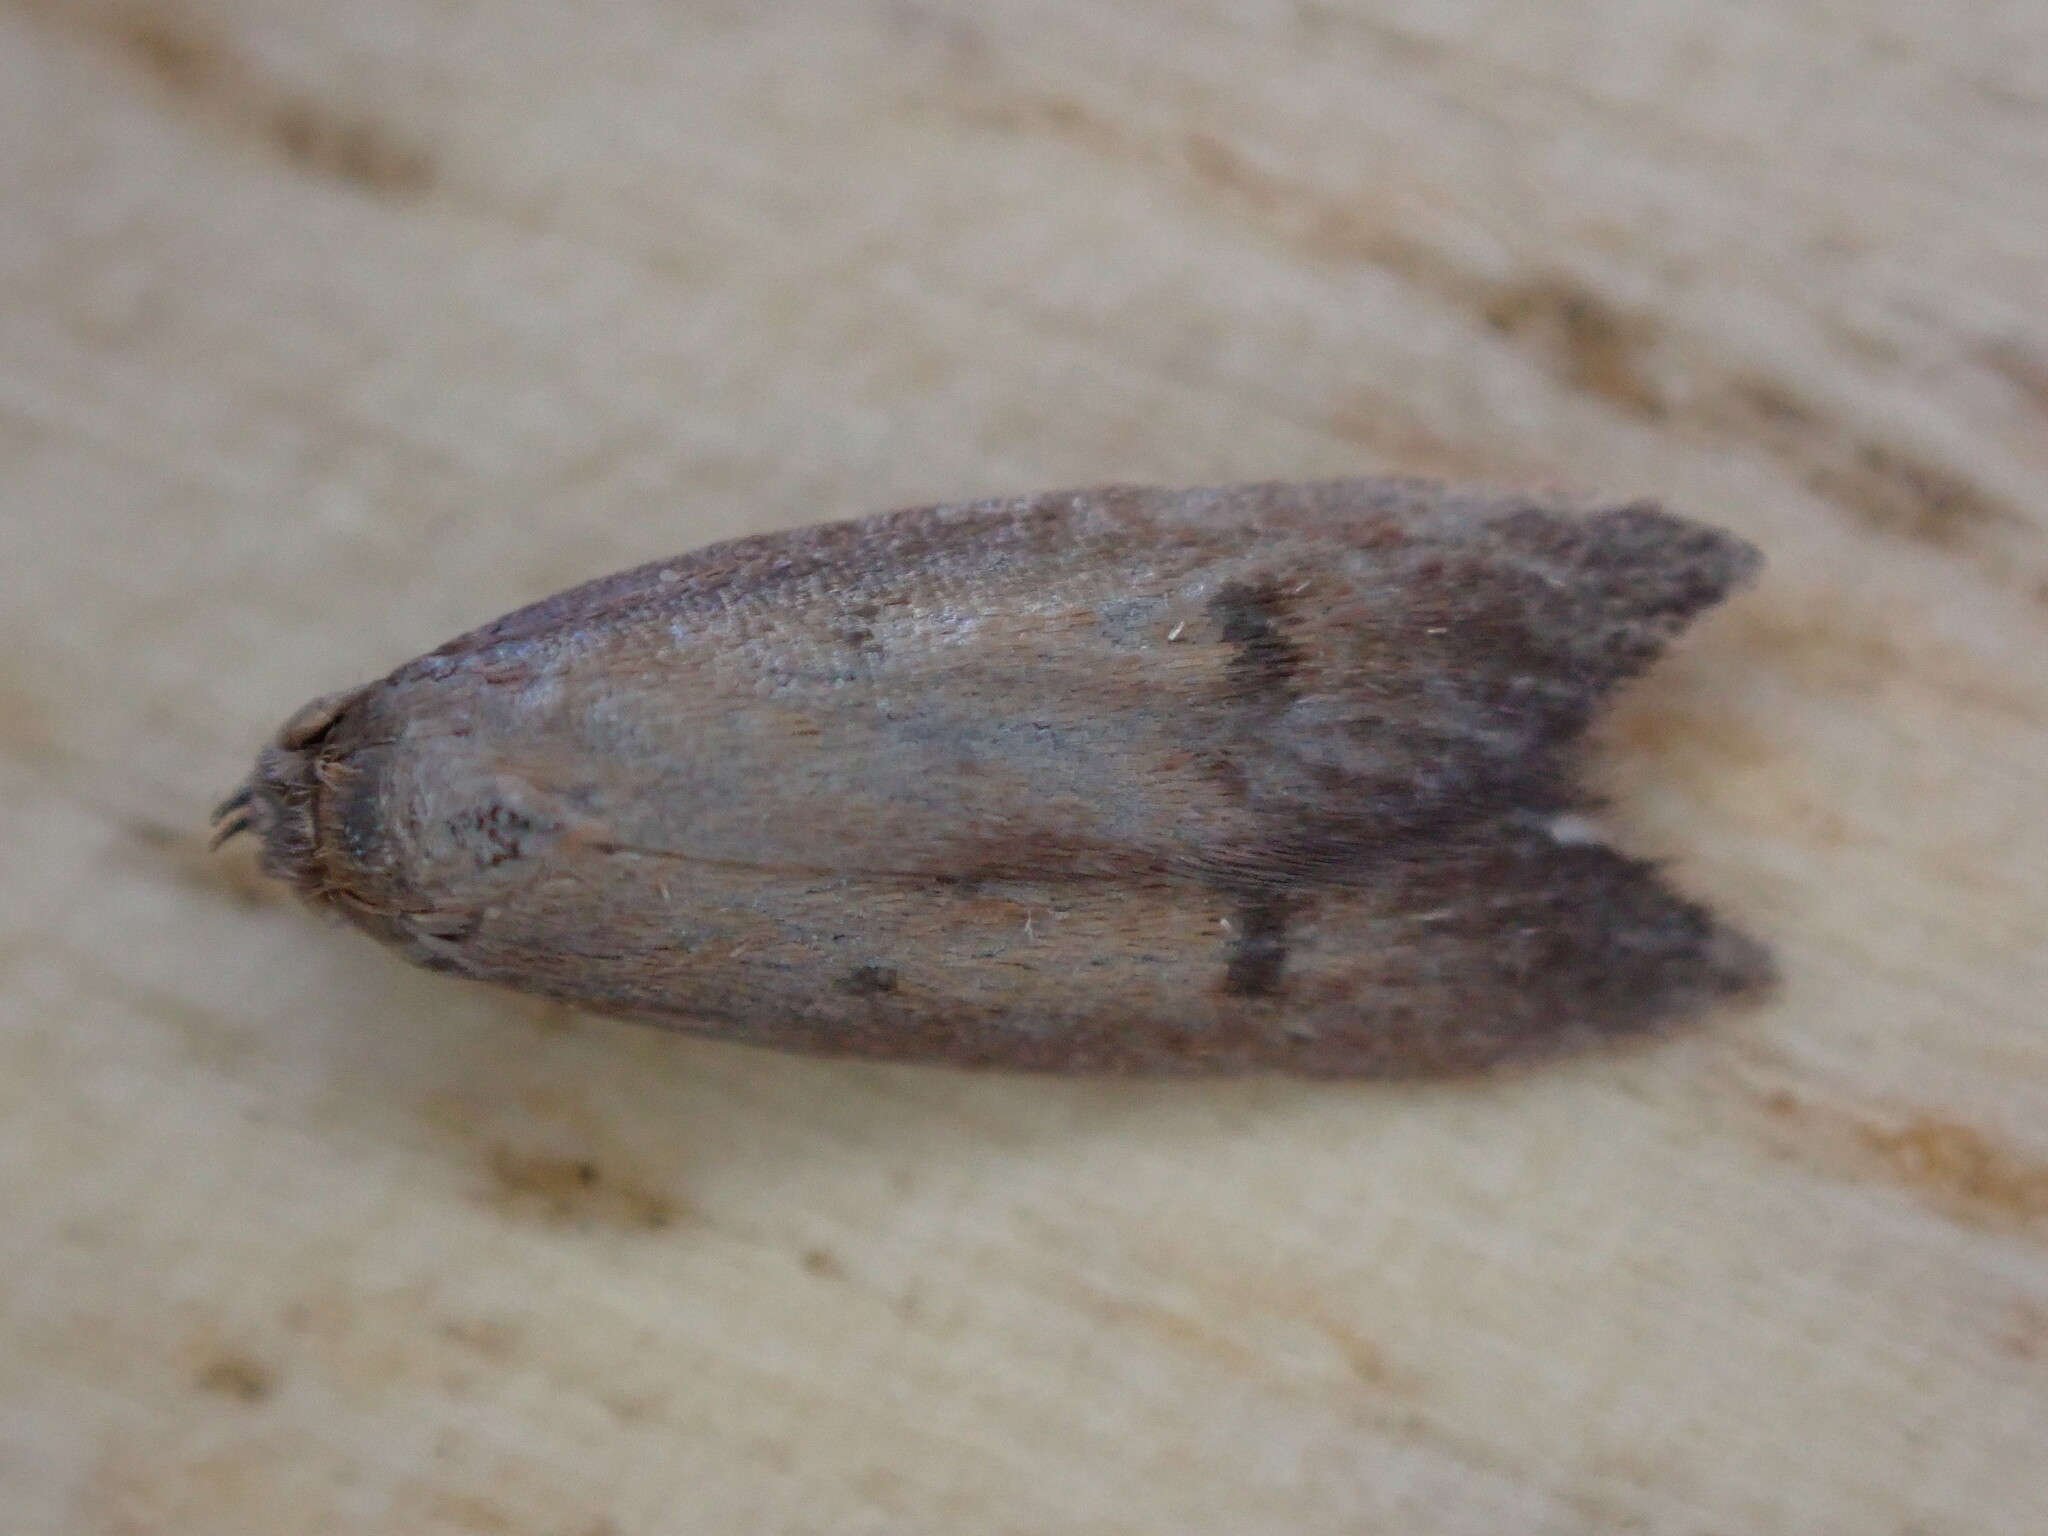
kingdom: Animalia
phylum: Arthropoda
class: Insecta
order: Lepidoptera
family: Oecophoridae
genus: Tachystola
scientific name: Tachystola acroxantha
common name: Ruddy streak
